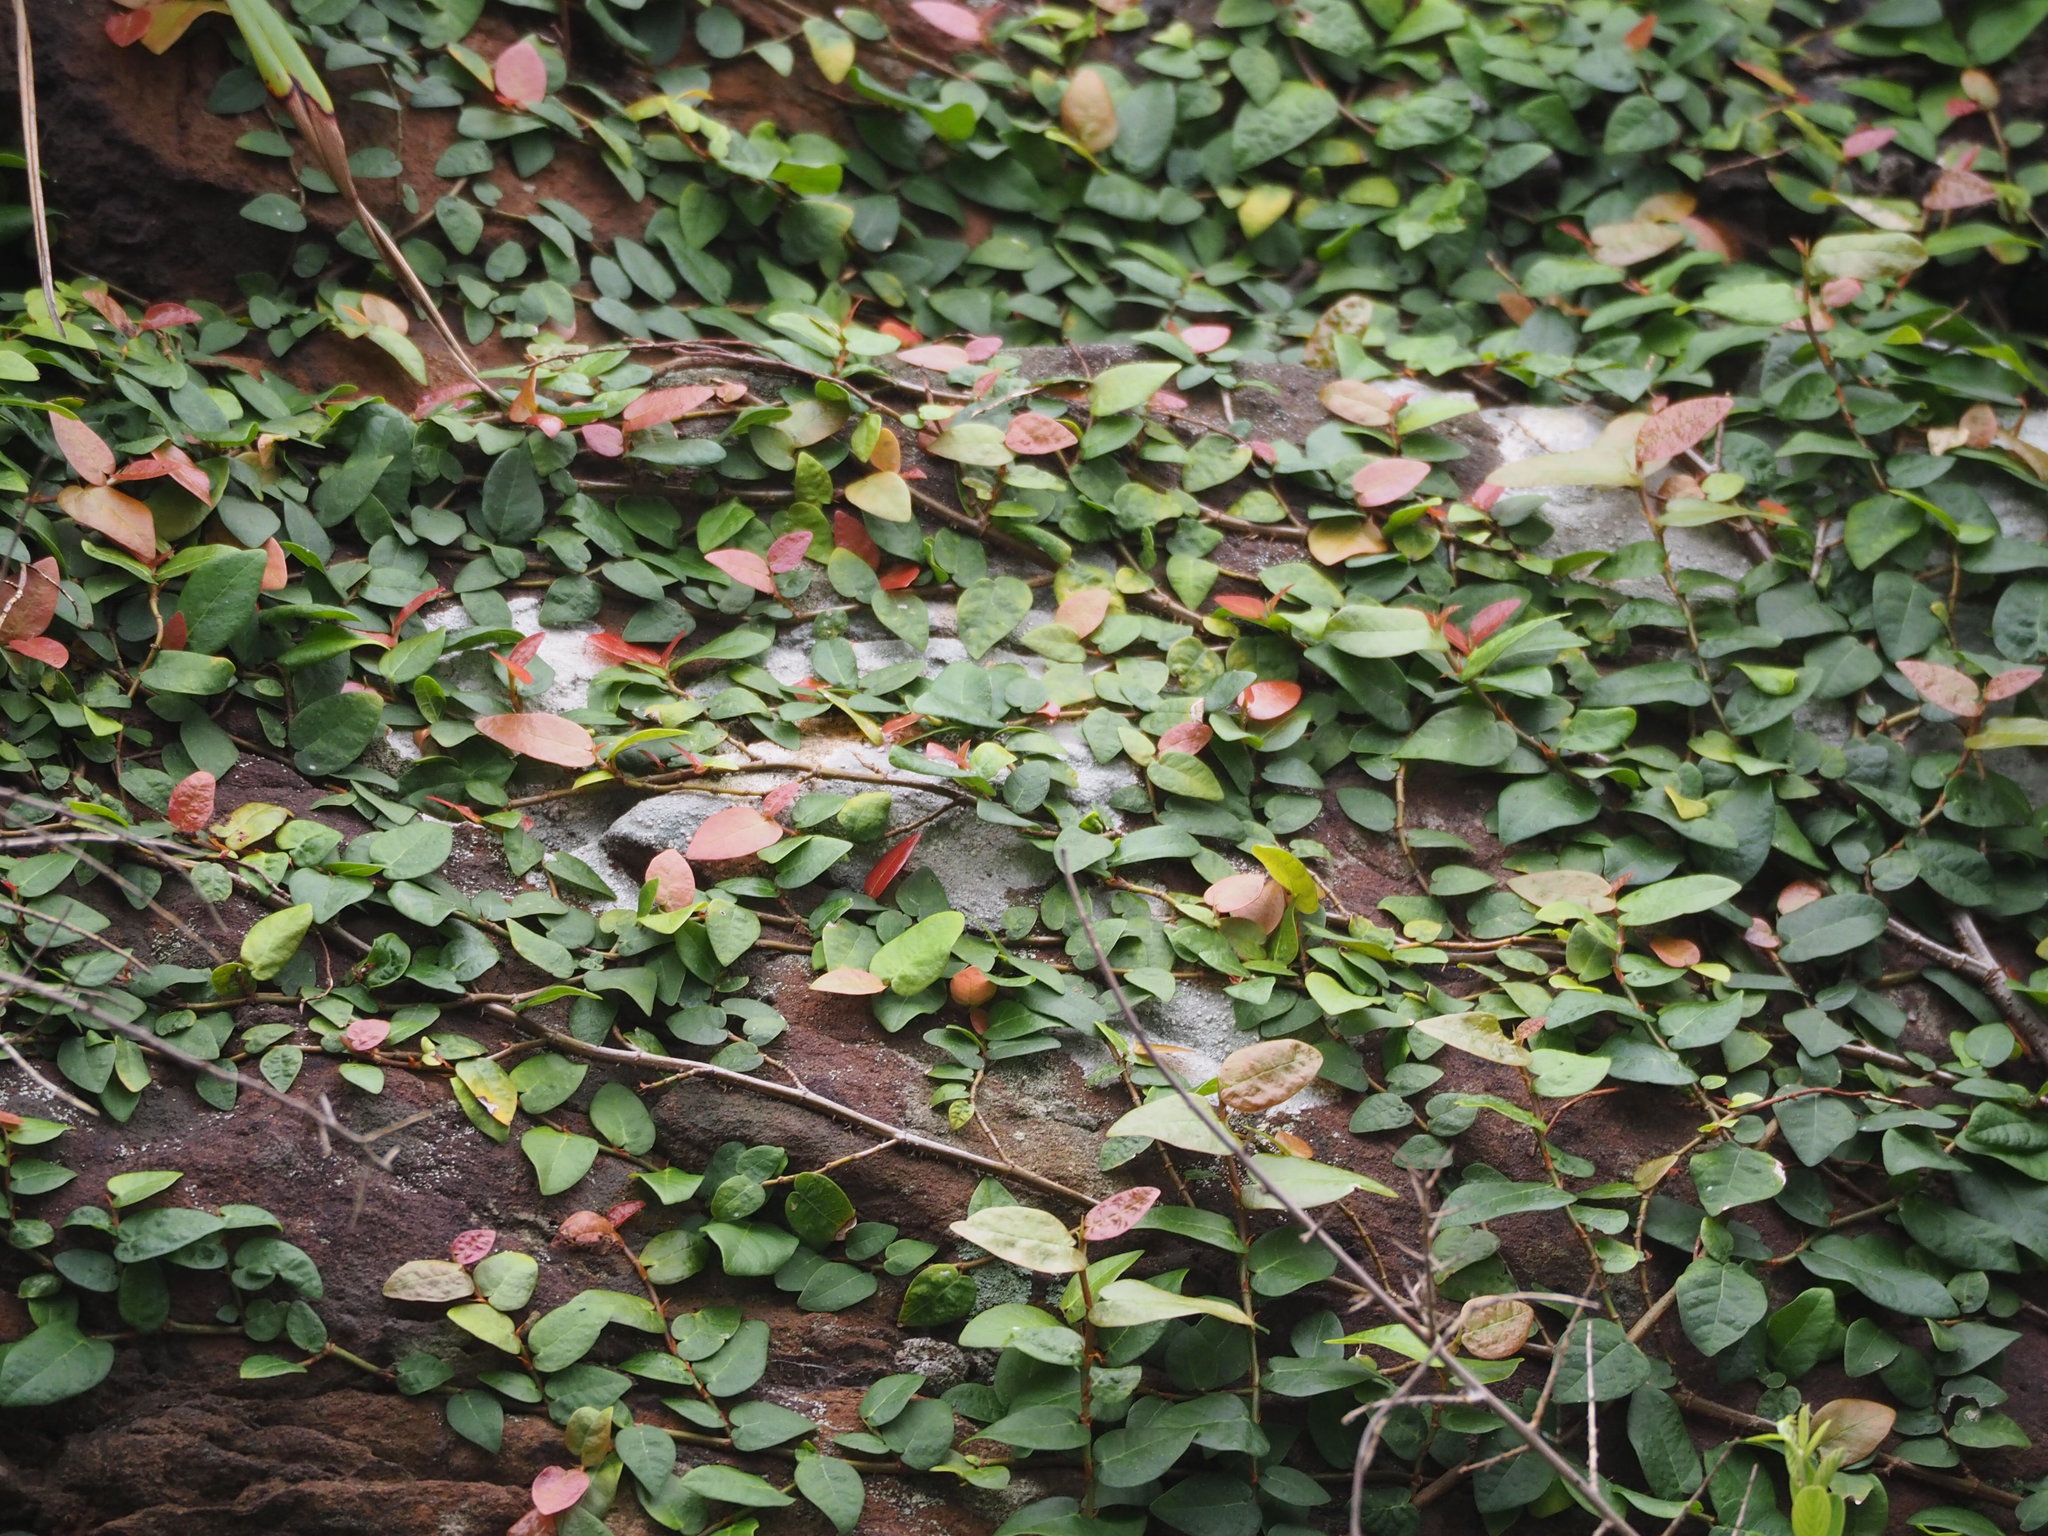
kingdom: Plantae
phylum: Tracheophyta
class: Magnoliopsida
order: Rosales
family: Moraceae
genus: Ficus
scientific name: Ficus pumila
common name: Climbingfig
